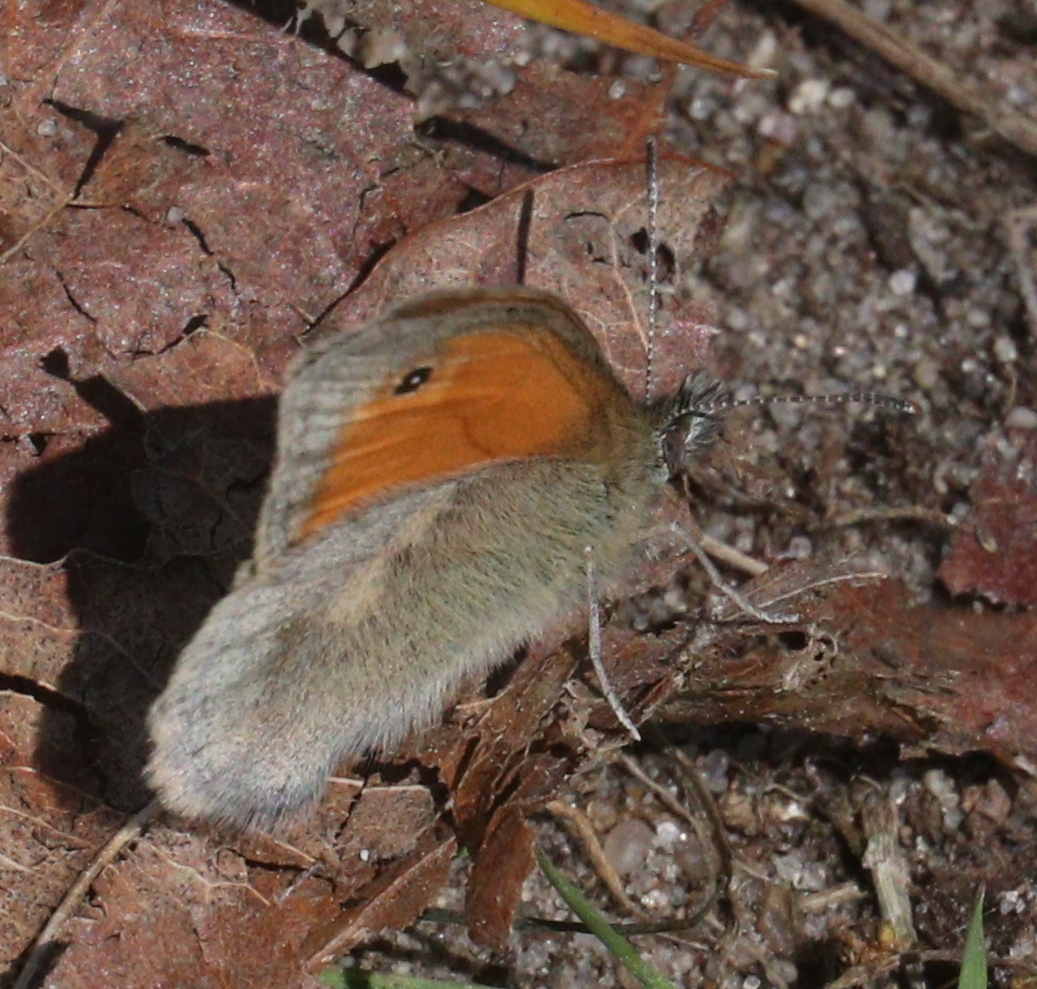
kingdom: Animalia
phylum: Arthropoda
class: Insecta
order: Lepidoptera
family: Nymphalidae
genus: Coenonympha
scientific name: Coenonympha pamphilus
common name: Small heath
